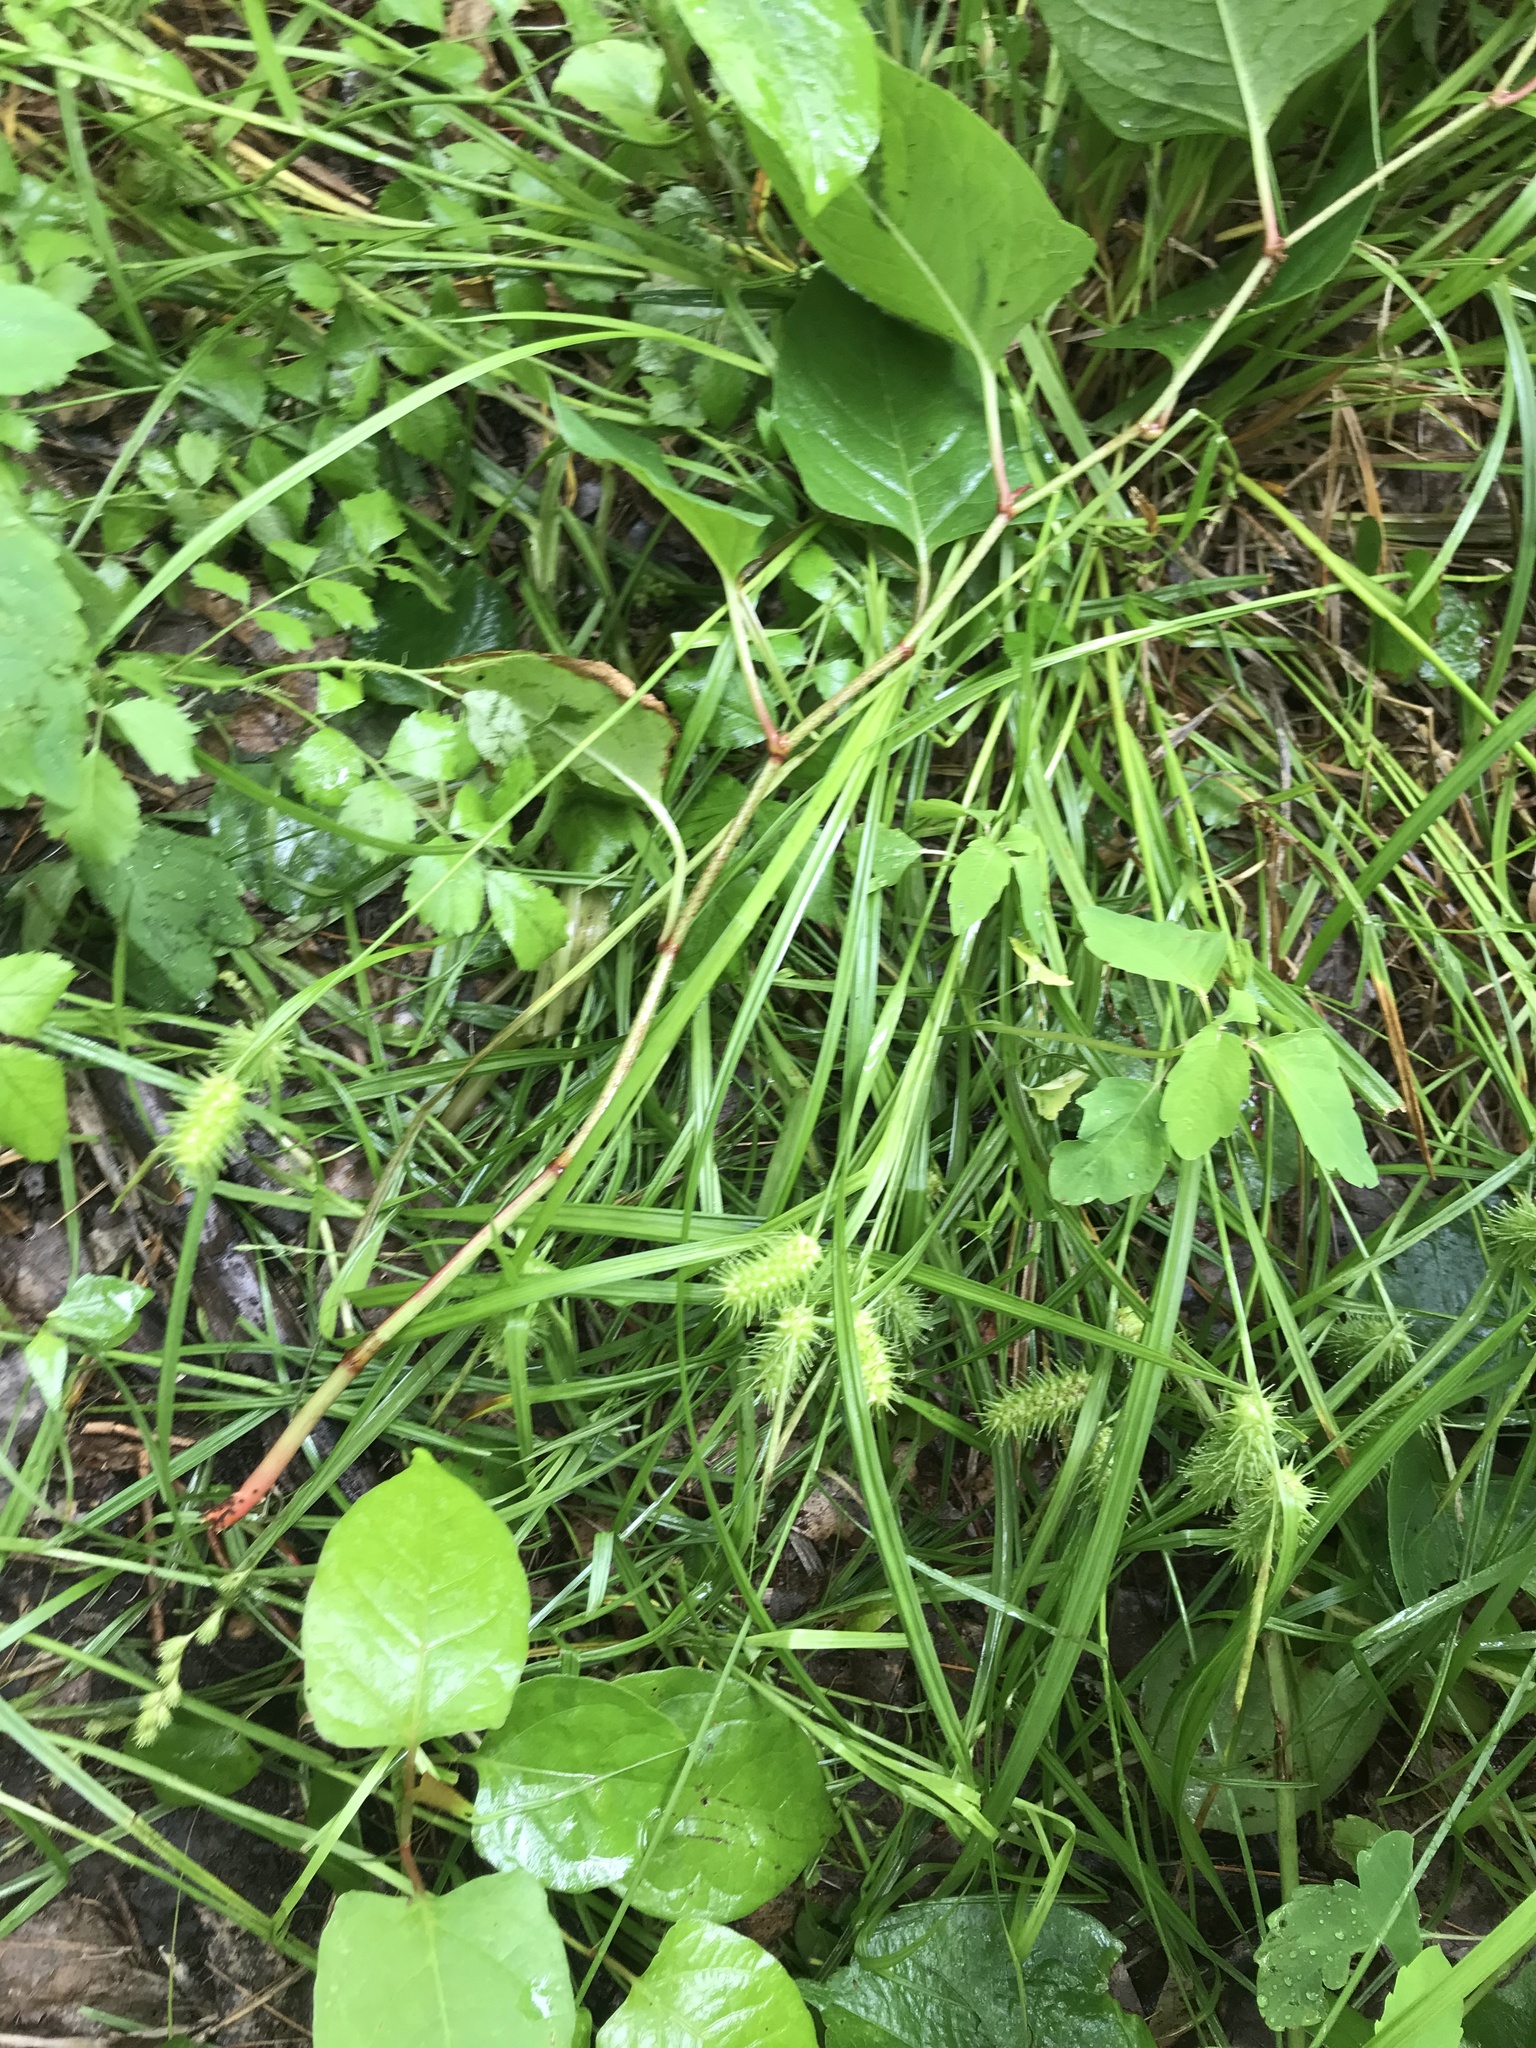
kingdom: Plantae
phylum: Tracheophyta
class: Liliopsida
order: Poales
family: Cyperaceae
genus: Carex
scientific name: Carex lurida
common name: Sallow sedge
